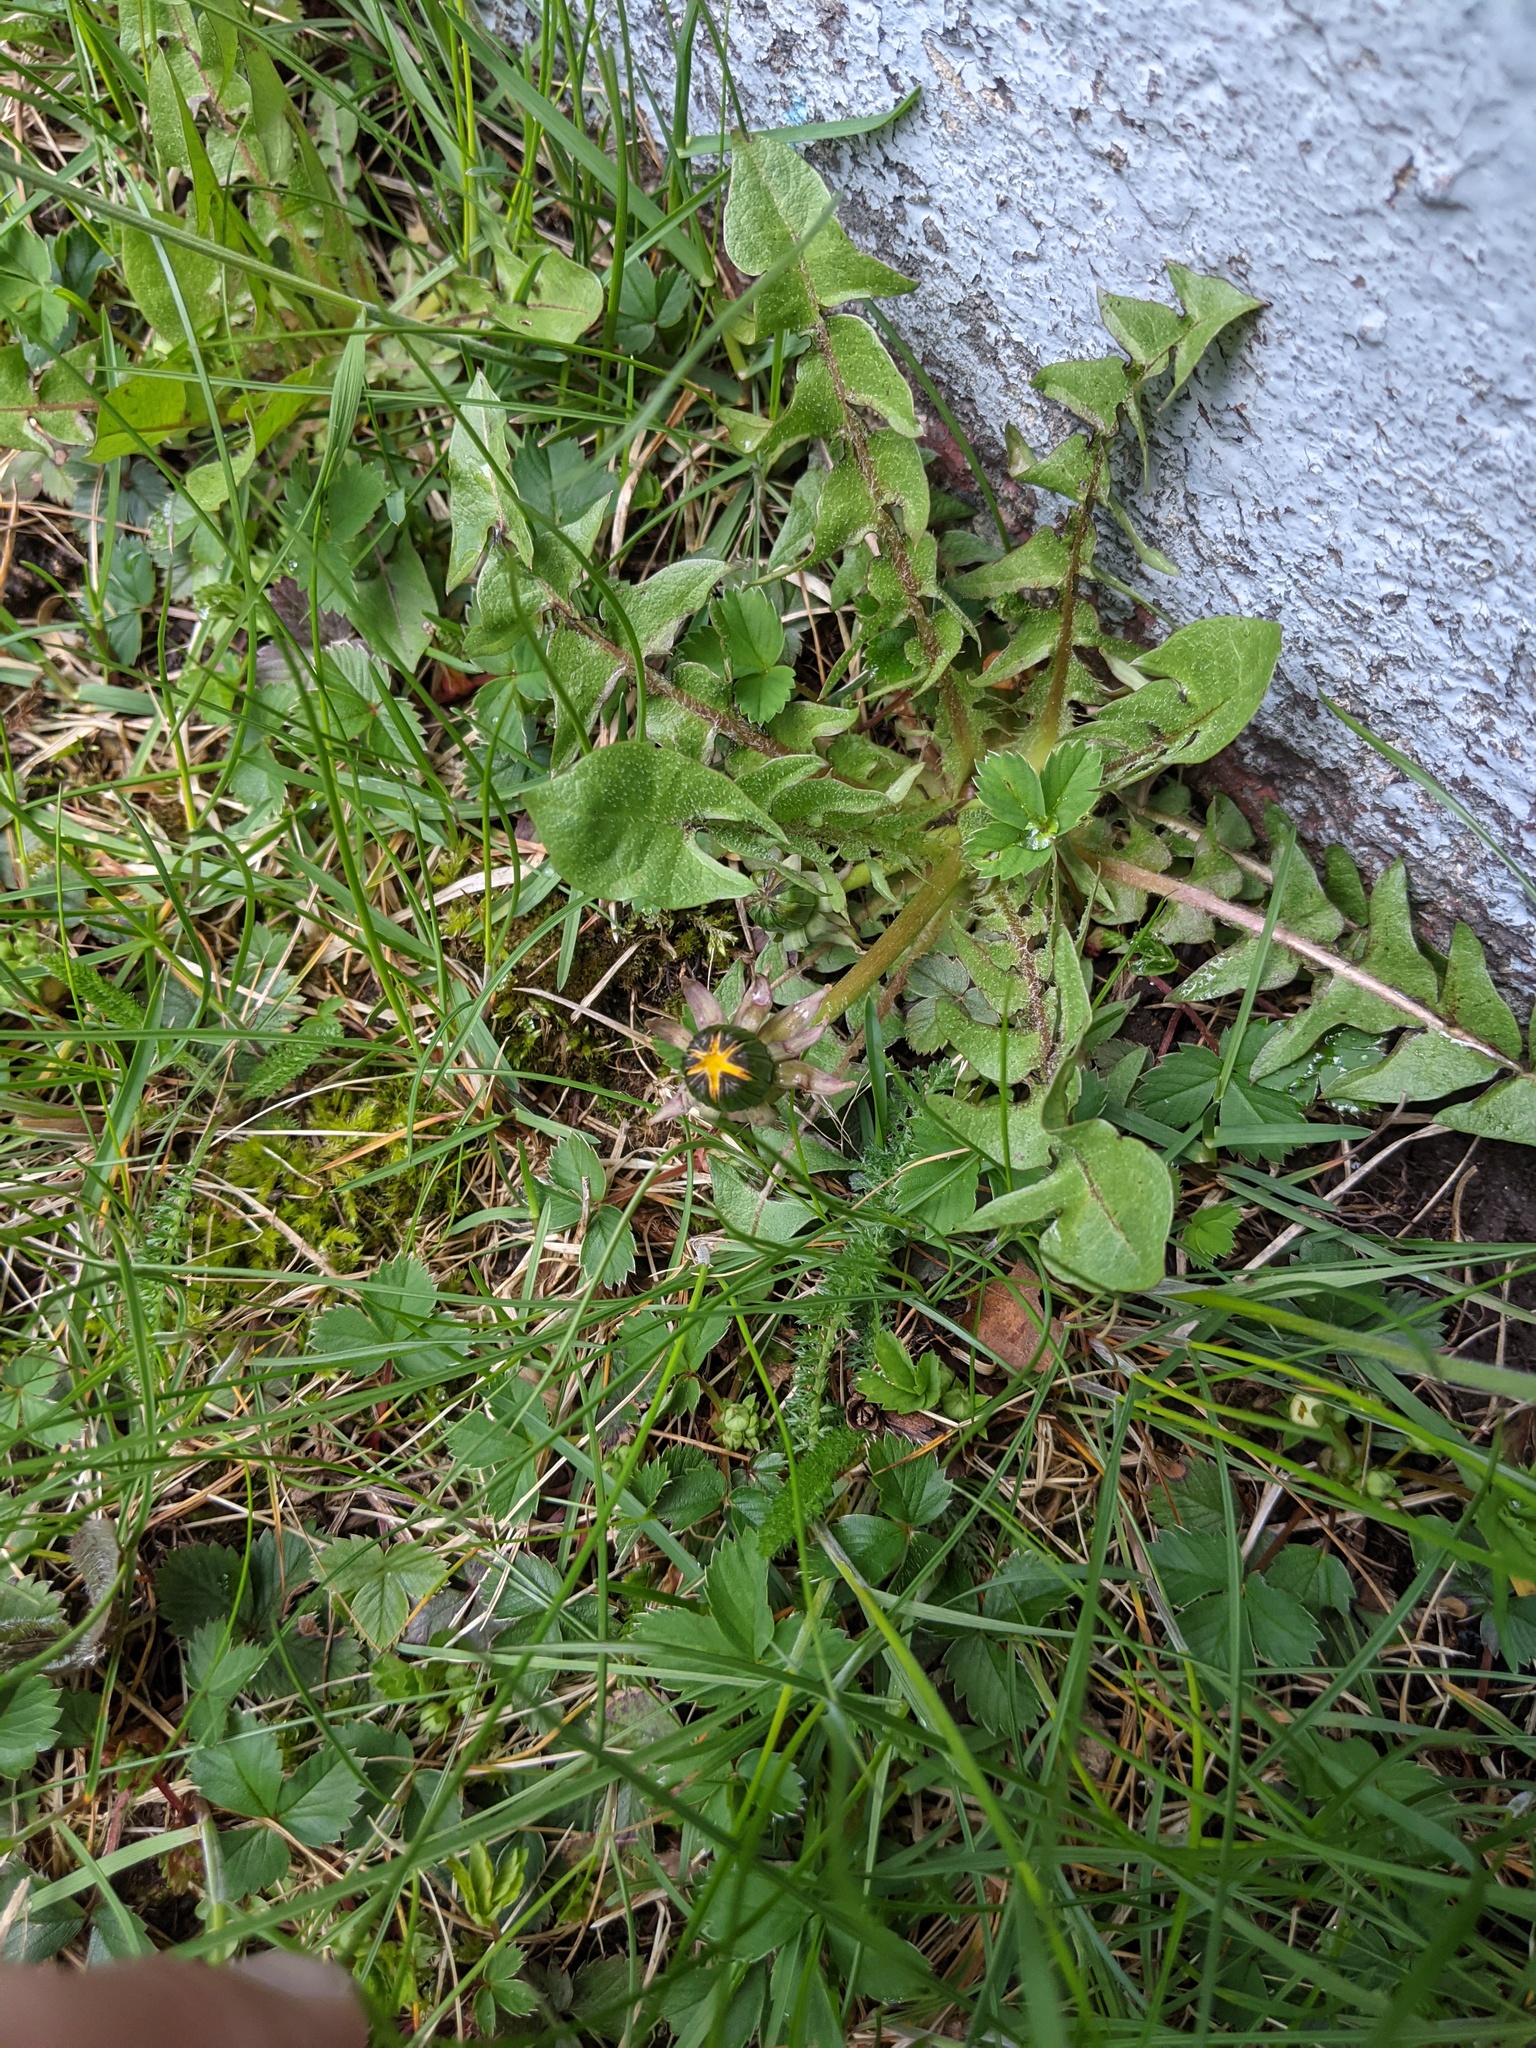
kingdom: Plantae
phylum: Tracheophyta
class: Magnoliopsida
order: Asterales
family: Asteraceae
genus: Taraxacum
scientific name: Taraxacum officinale
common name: Common dandelion
